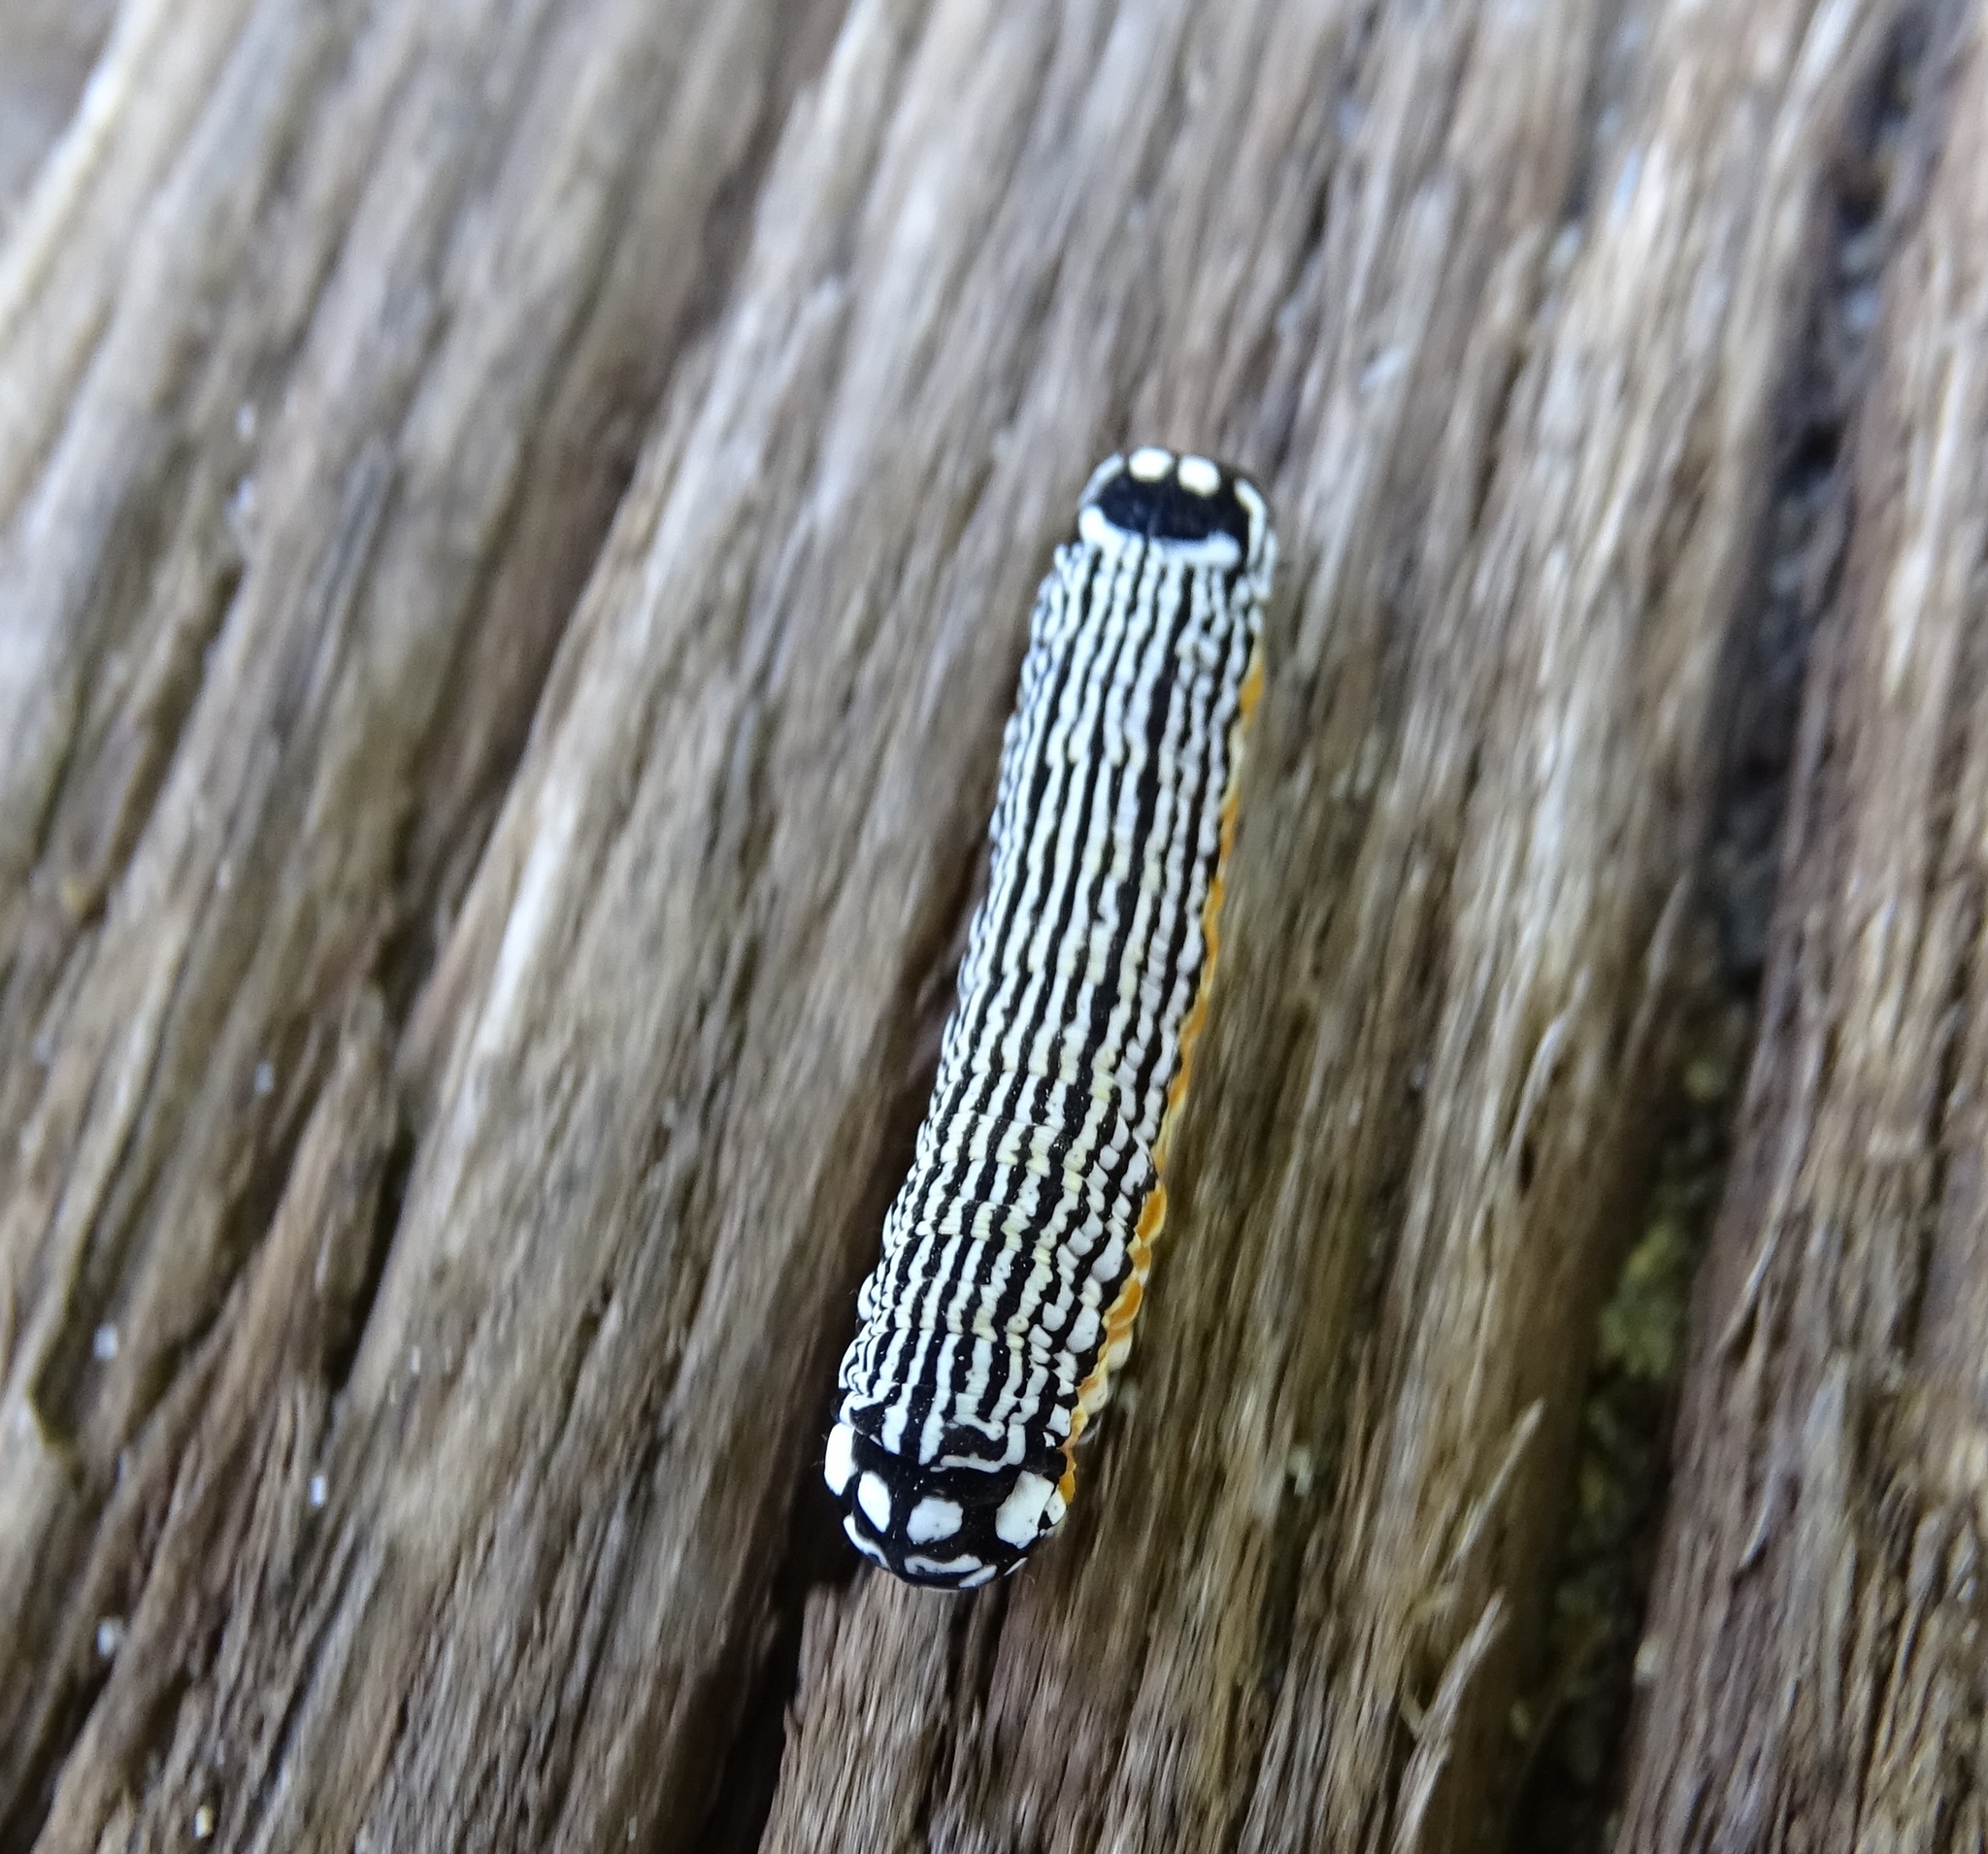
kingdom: Animalia
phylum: Arthropoda
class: Insecta
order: Lepidoptera
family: Noctuidae
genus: Phosphila
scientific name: Phosphila turbulenta
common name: Turbulent phosphila moth
